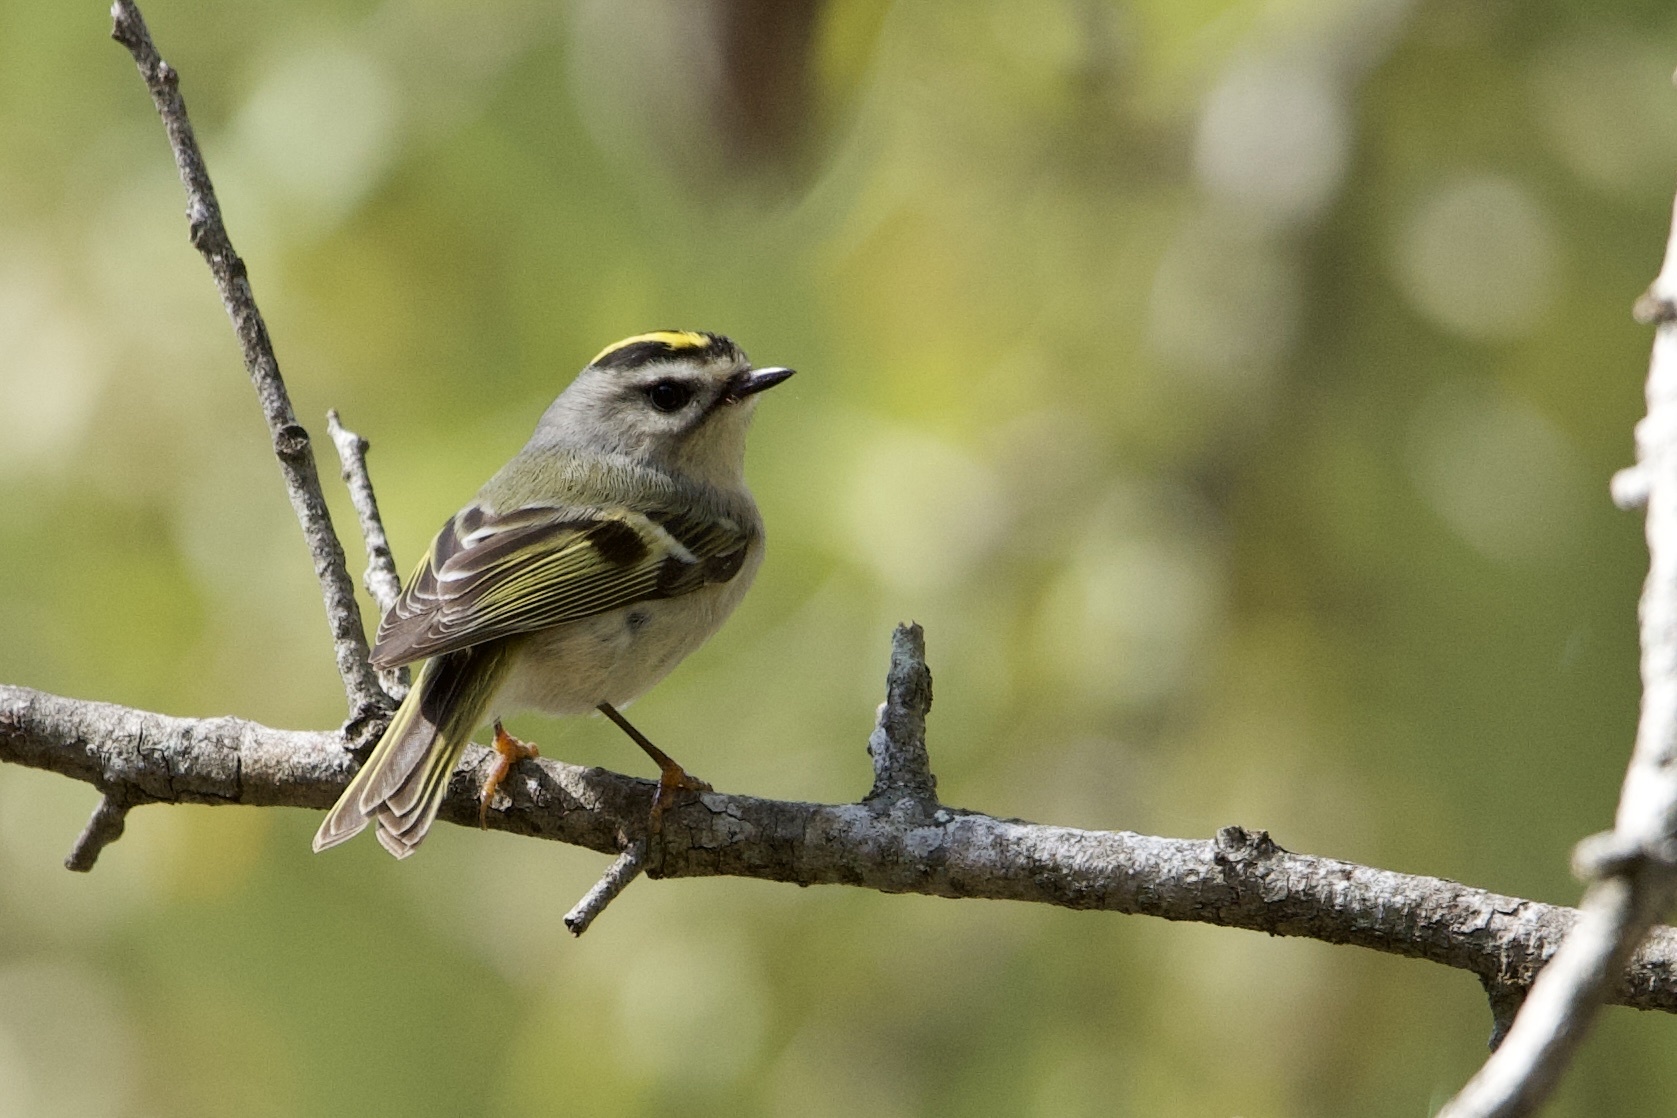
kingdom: Animalia
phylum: Chordata
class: Aves
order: Passeriformes
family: Regulidae
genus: Regulus
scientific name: Regulus satrapa
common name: Golden-crowned kinglet
